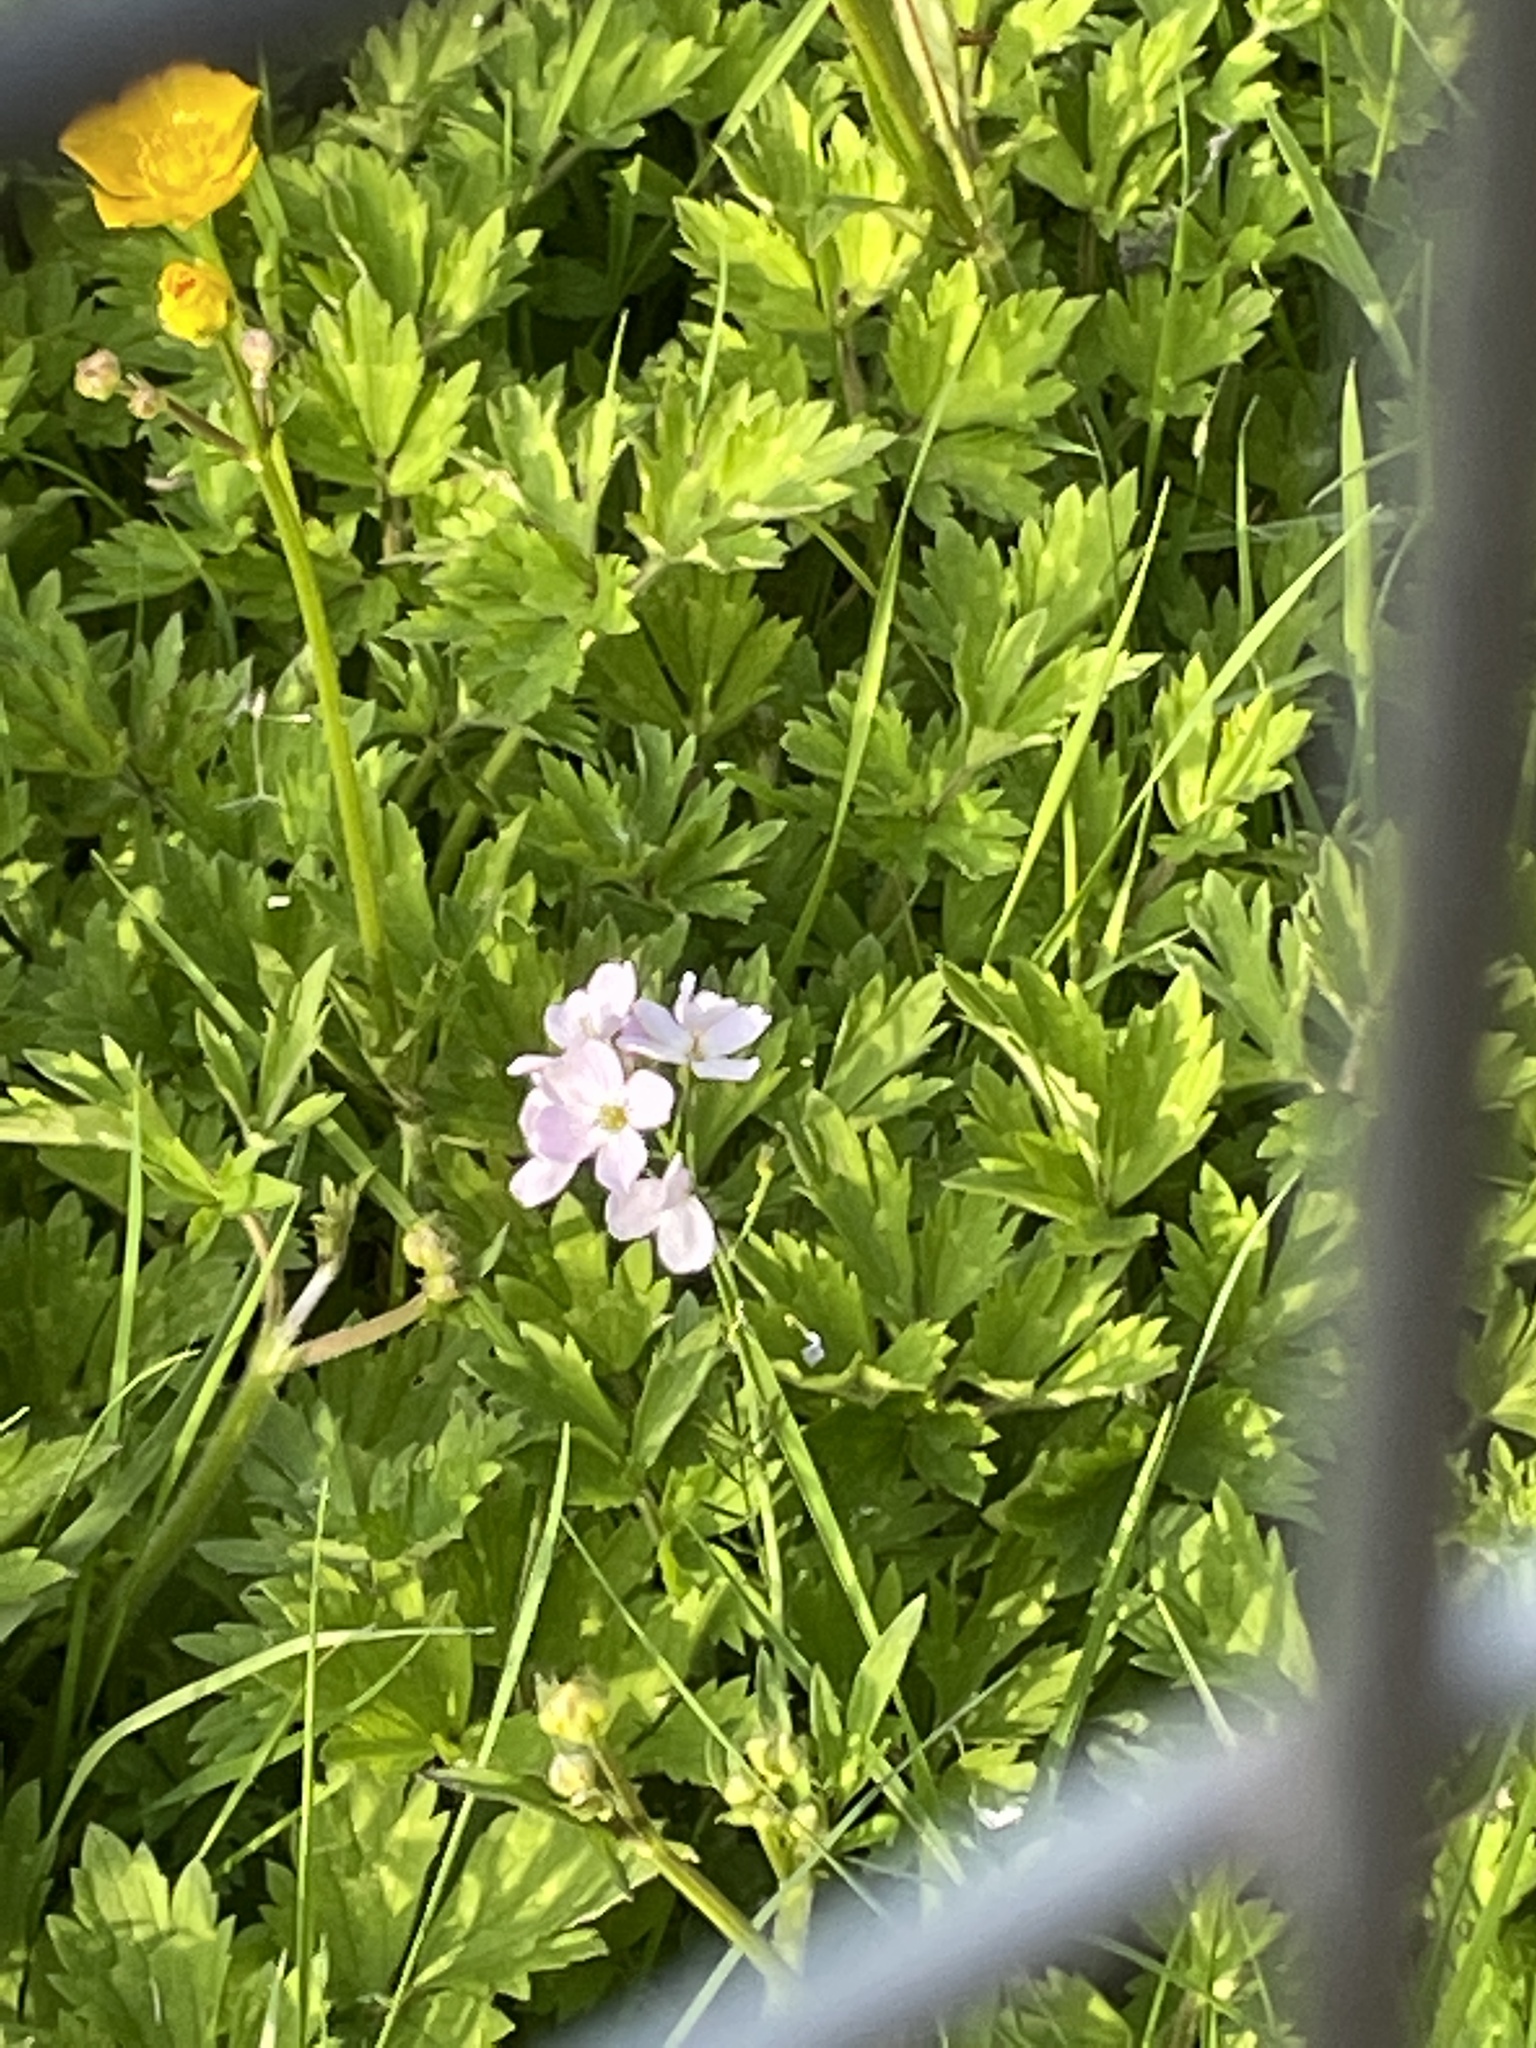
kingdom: Plantae
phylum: Tracheophyta
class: Magnoliopsida
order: Brassicales
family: Brassicaceae
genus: Cardamine
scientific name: Cardamine pratensis
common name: Cuckoo flower
